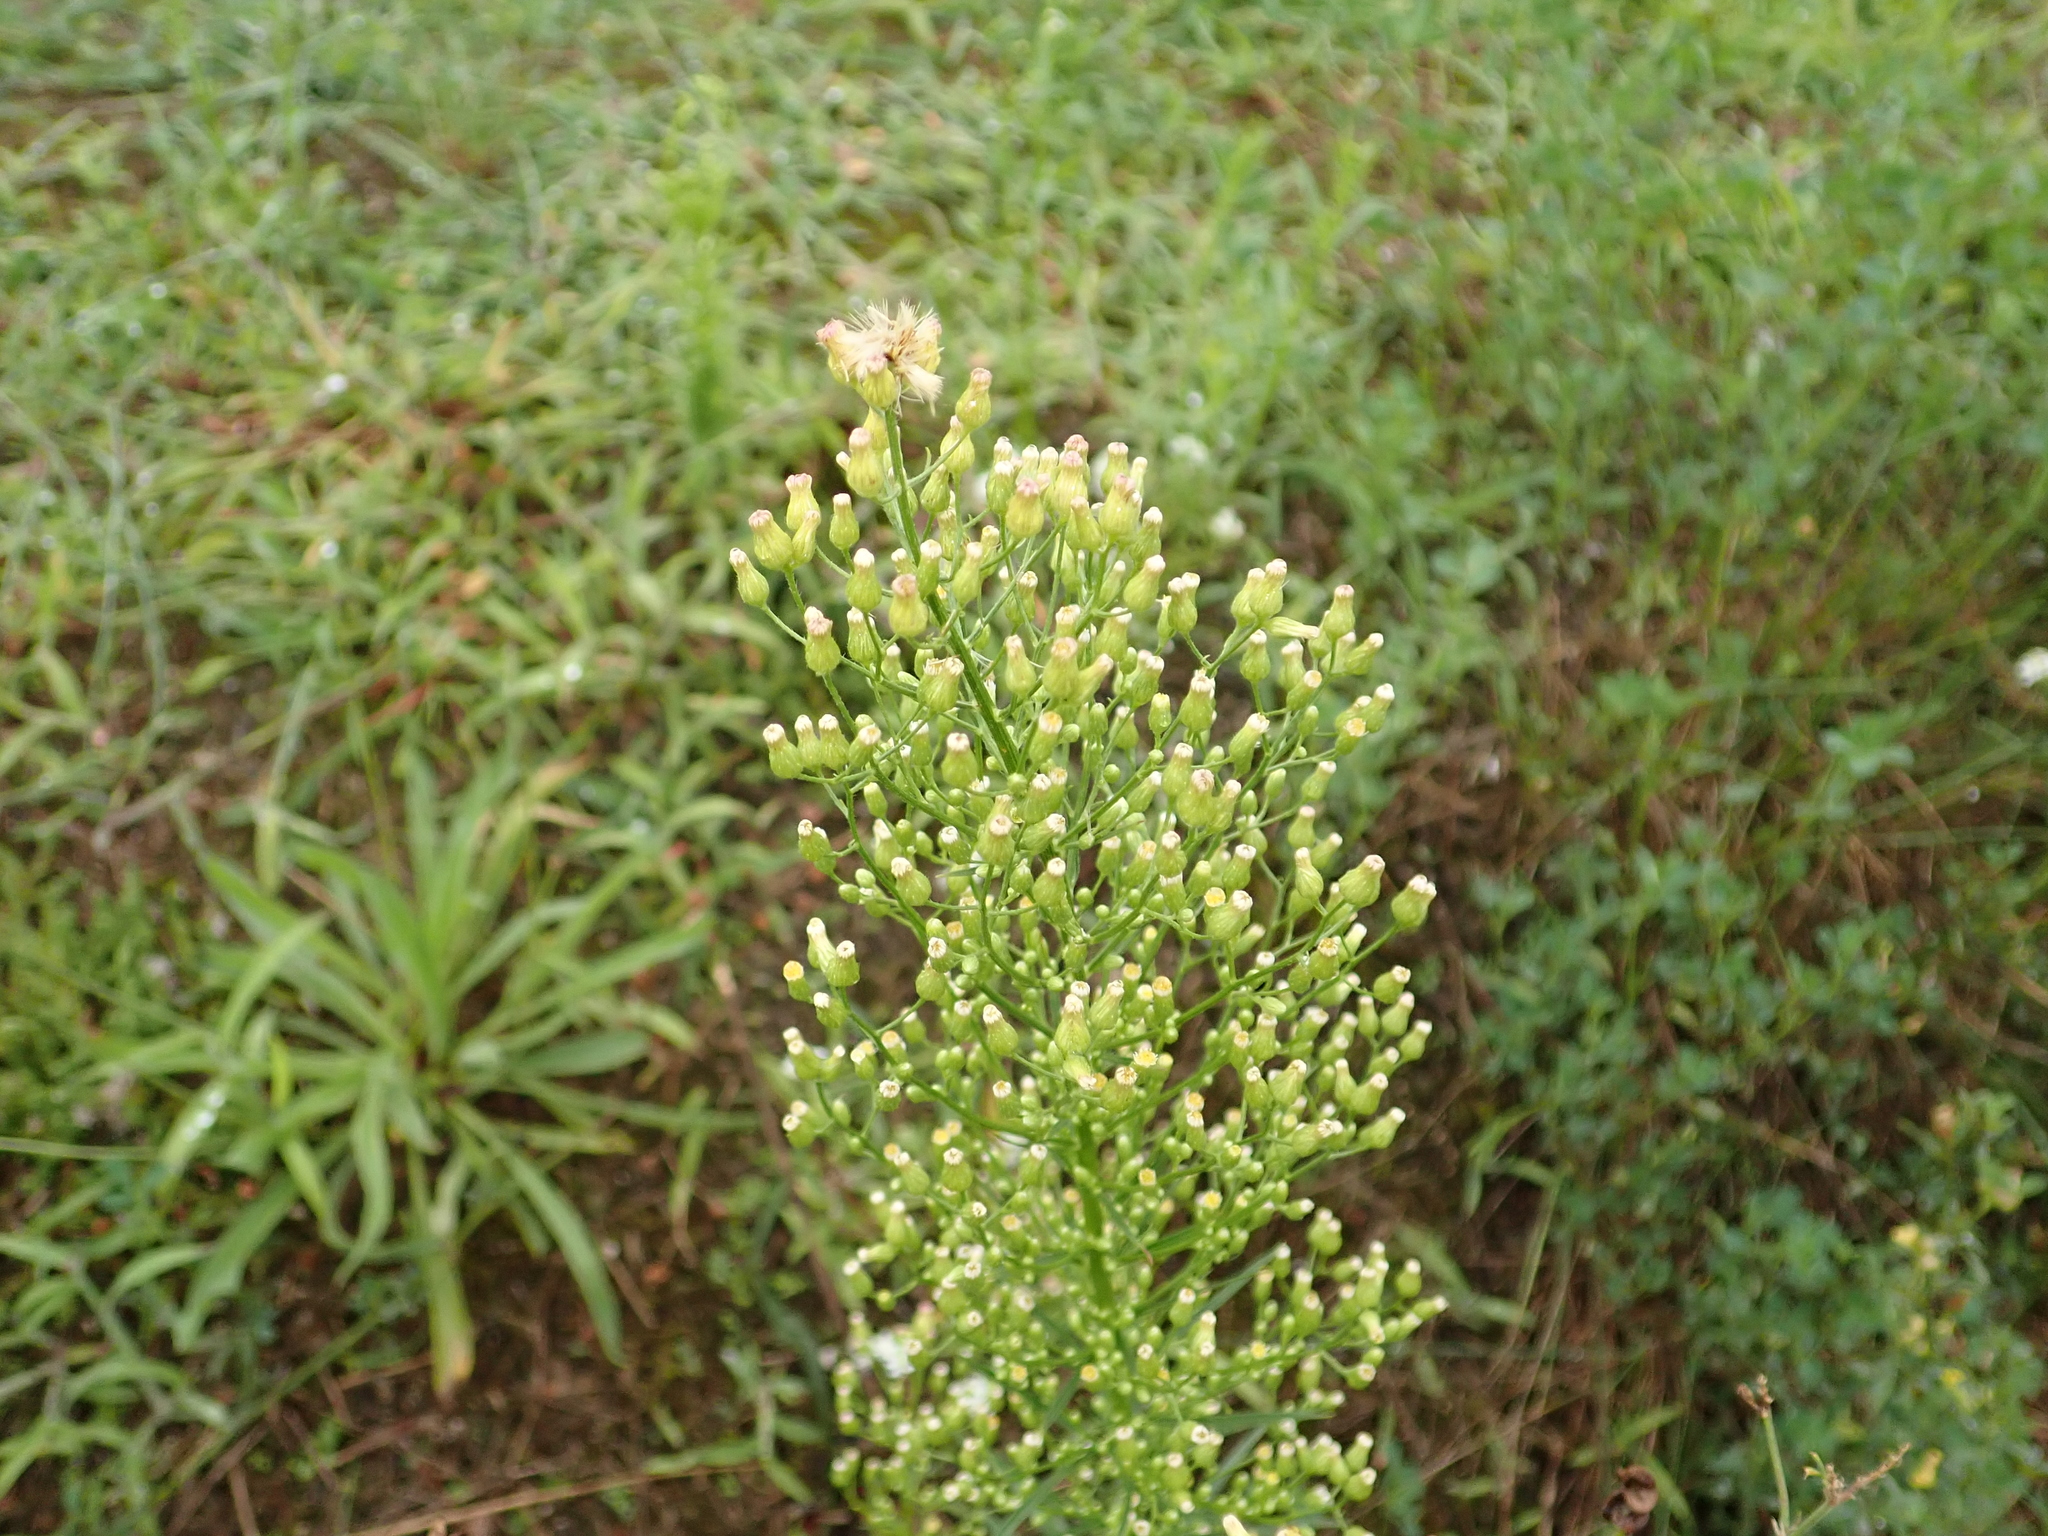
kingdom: Plantae
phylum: Tracheophyta
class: Magnoliopsida
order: Asterales
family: Asteraceae
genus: Erigeron
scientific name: Erigeron canadensis
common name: Canadian fleabane
